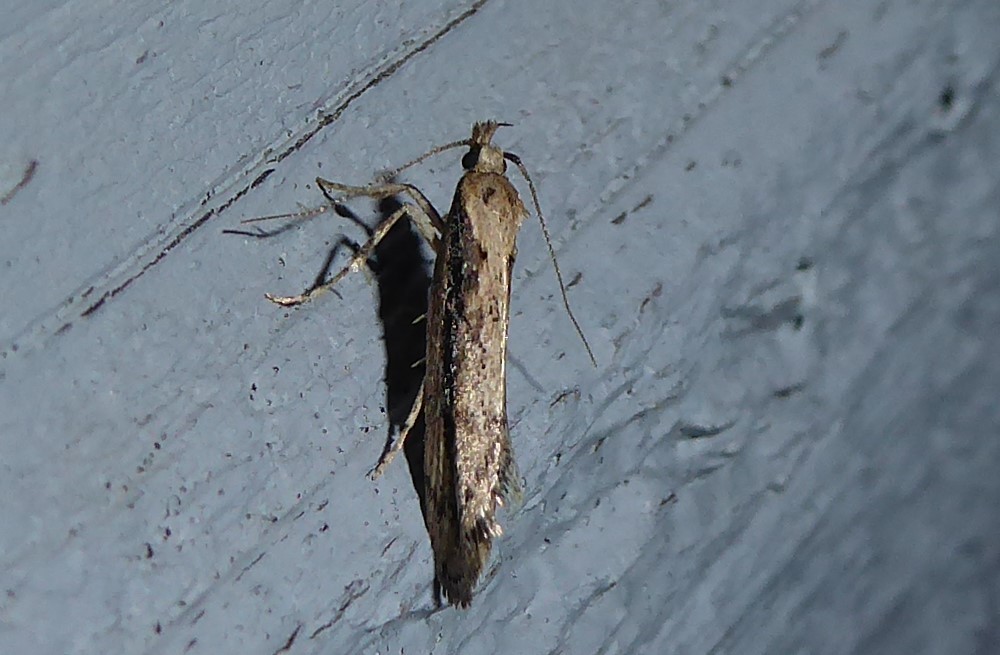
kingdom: Animalia
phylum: Arthropoda
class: Insecta
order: Lepidoptera
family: Oecophoridae
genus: Atomotricha
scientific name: Atomotricha versuta
